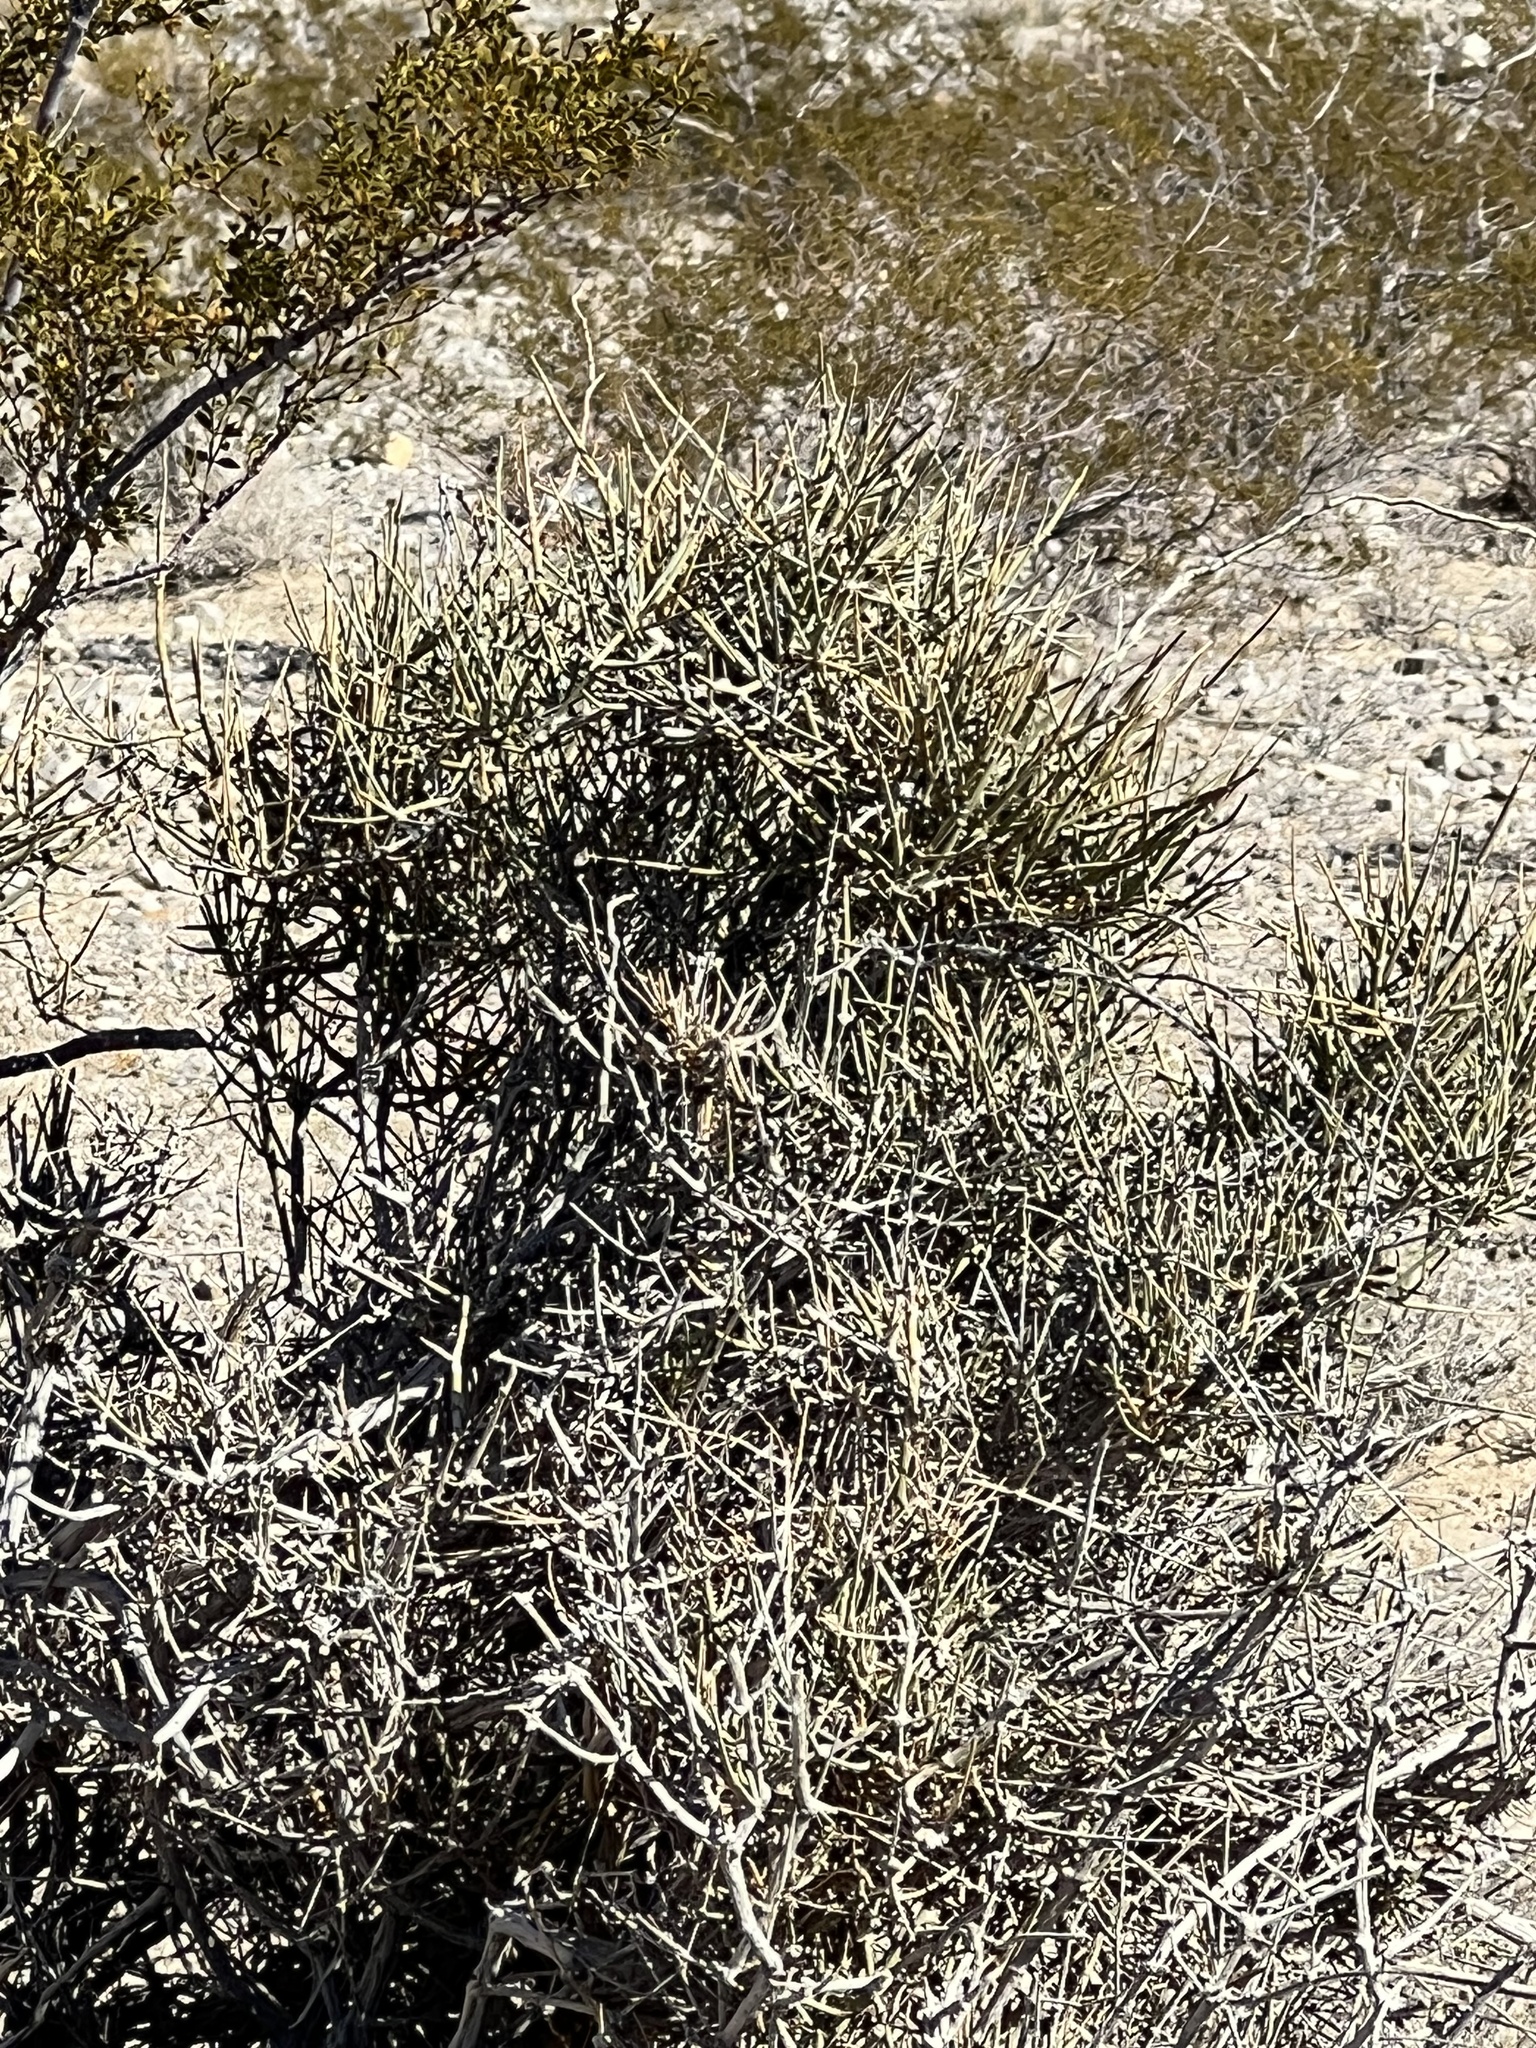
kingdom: Plantae
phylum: Tracheophyta
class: Magnoliopsida
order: Sapindales
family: Rutaceae
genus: Thamnosma
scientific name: Thamnosma montana
